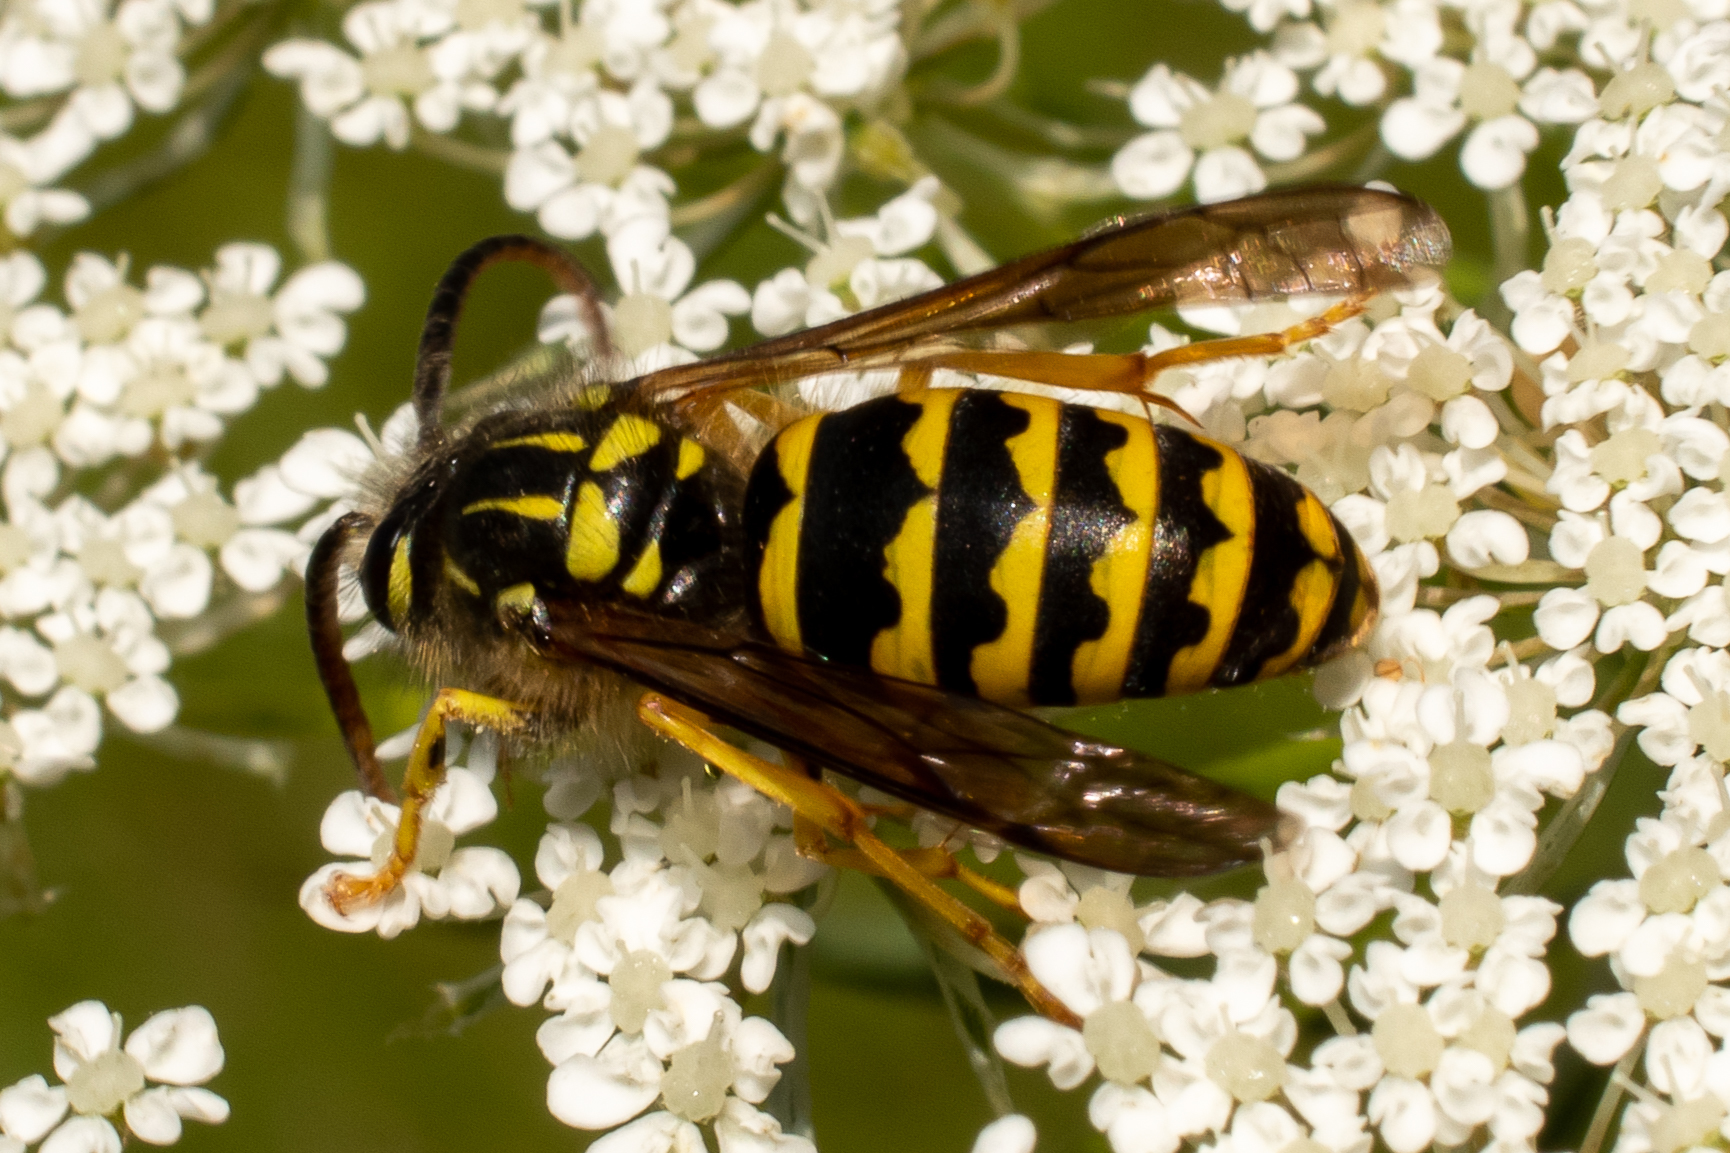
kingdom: Animalia
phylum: Arthropoda
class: Insecta
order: Hymenoptera
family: Vespidae
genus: Dolichovespula
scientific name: Dolichovespula arenaria
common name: Aerial yellowjacket
